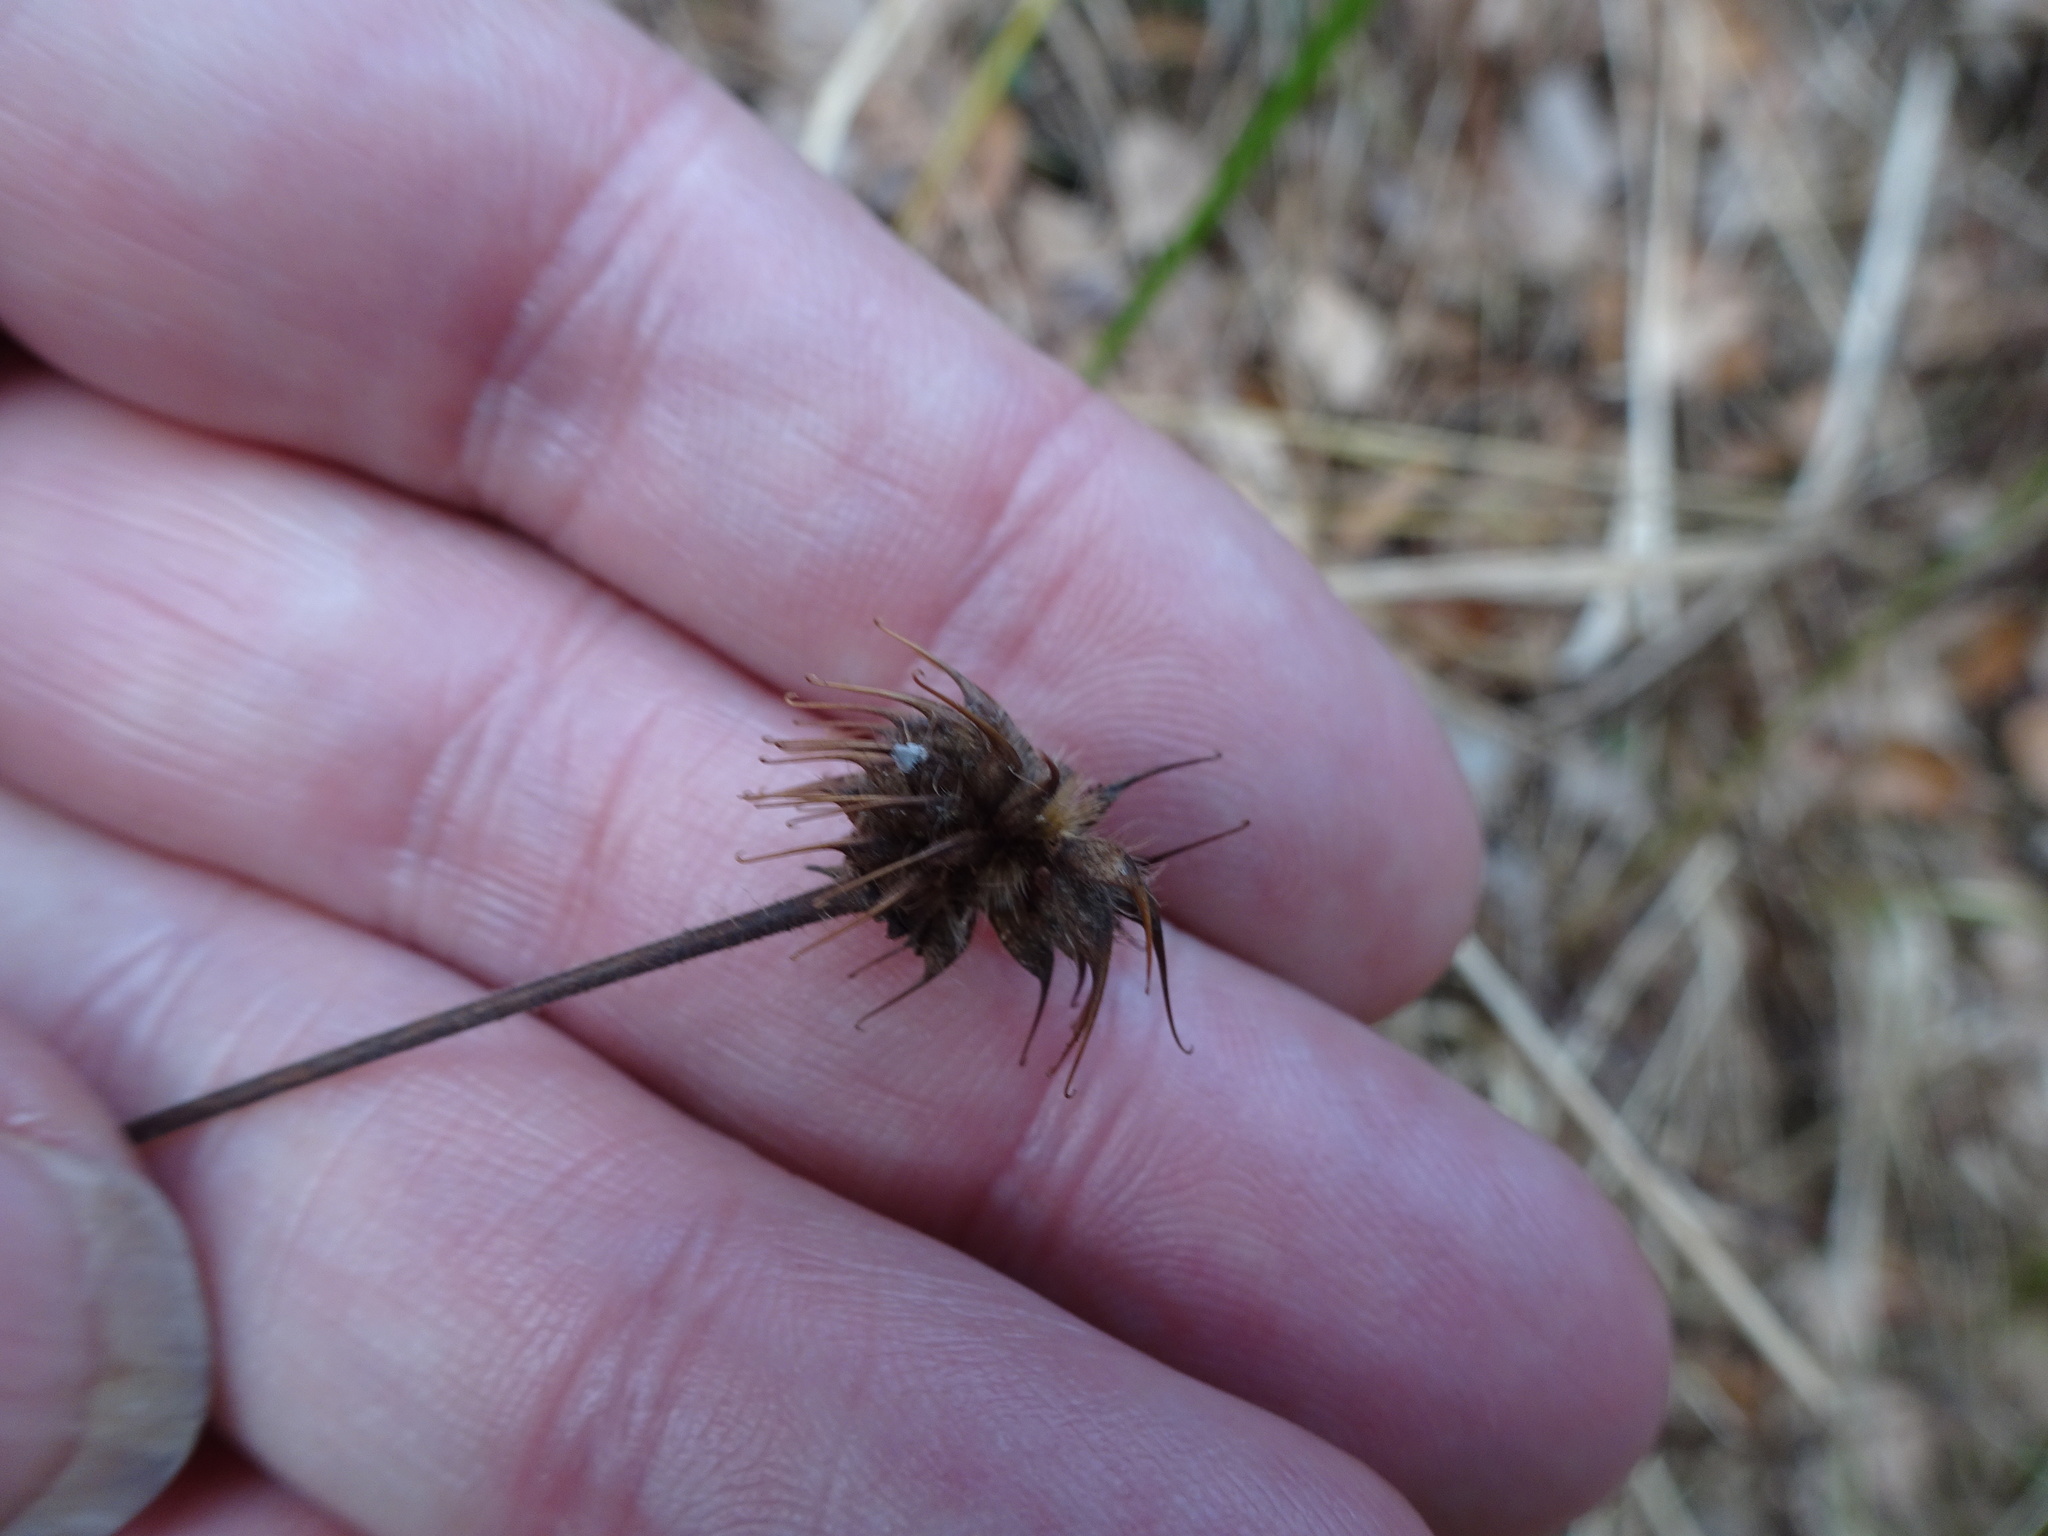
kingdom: Plantae
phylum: Tracheophyta
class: Magnoliopsida
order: Rosales
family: Rosaceae
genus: Geum
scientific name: Geum urbanum
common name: Wood avens
